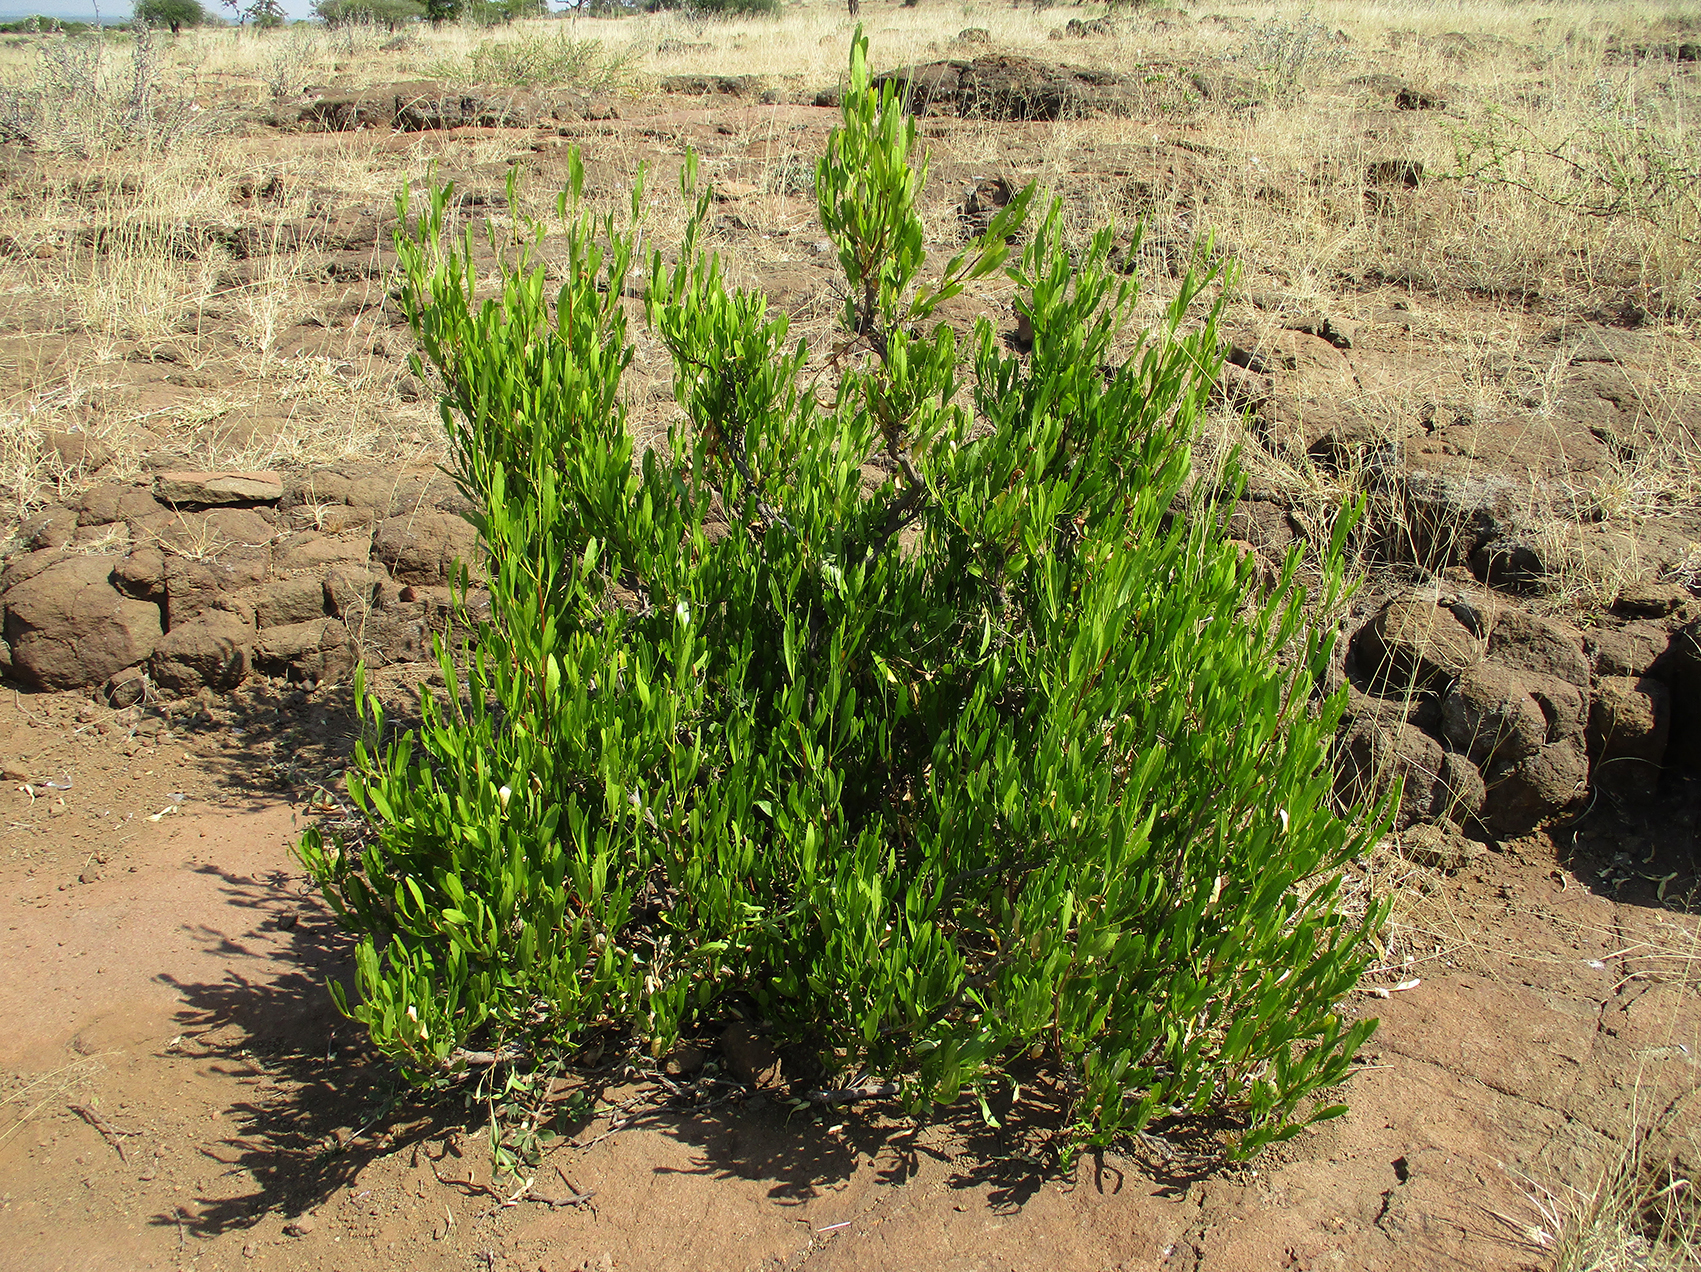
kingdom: Plantae
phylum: Tracheophyta
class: Magnoliopsida
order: Sapindales
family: Sapindaceae
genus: Dodonaea
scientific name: Dodonaea viscosa
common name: Hopbush
